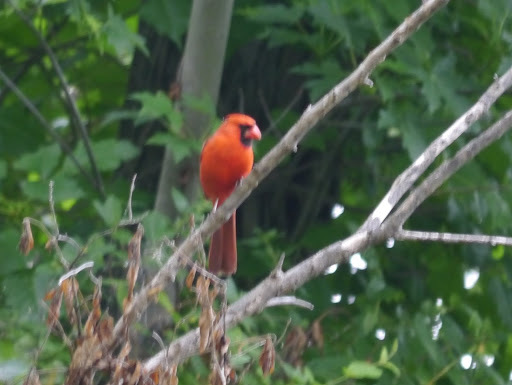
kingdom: Animalia
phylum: Chordata
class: Aves
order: Passeriformes
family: Cardinalidae
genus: Cardinalis
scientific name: Cardinalis cardinalis
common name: Northern cardinal
